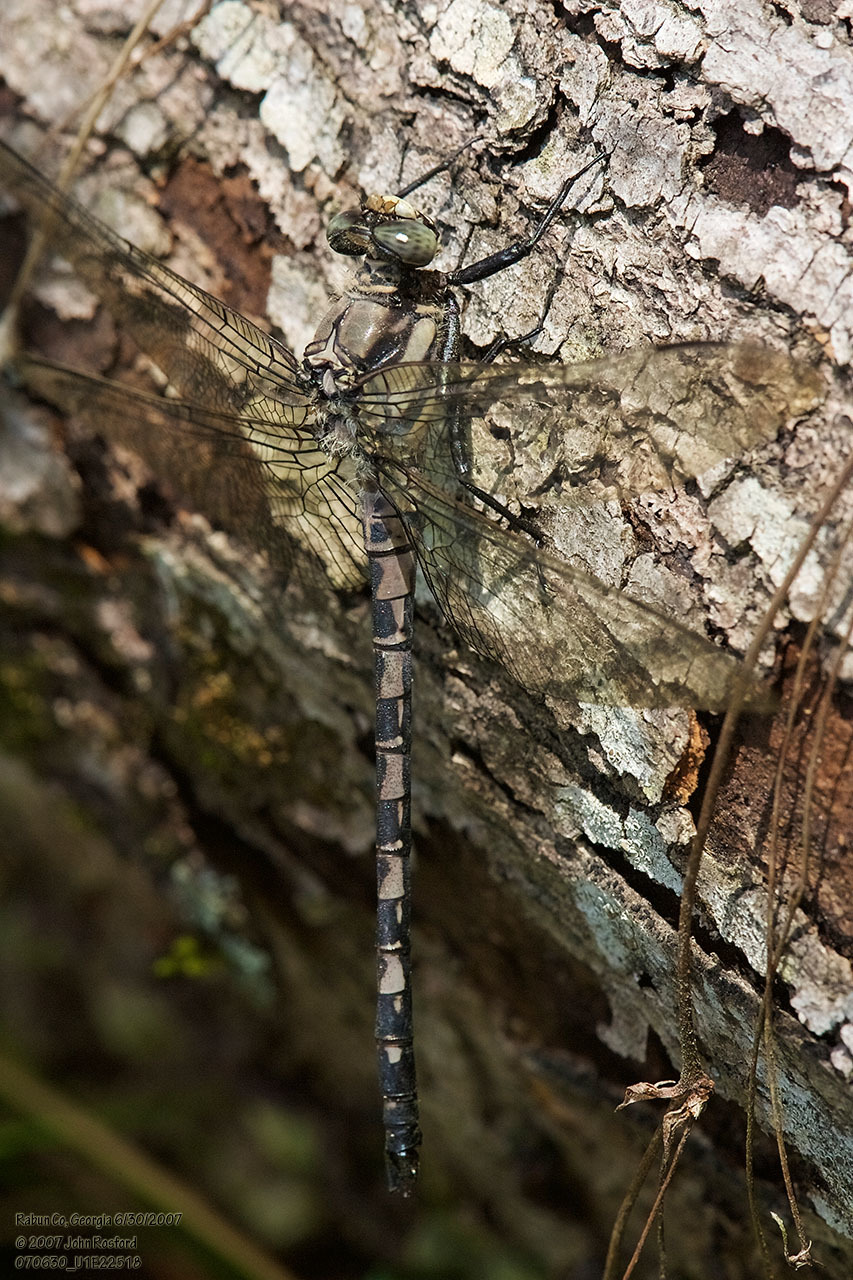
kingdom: Animalia
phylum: Arthropoda
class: Insecta
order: Odonata
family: Petaluridae
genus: Tachopteryx
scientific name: Tachopteryx thoreyi
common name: Gray petaltail
